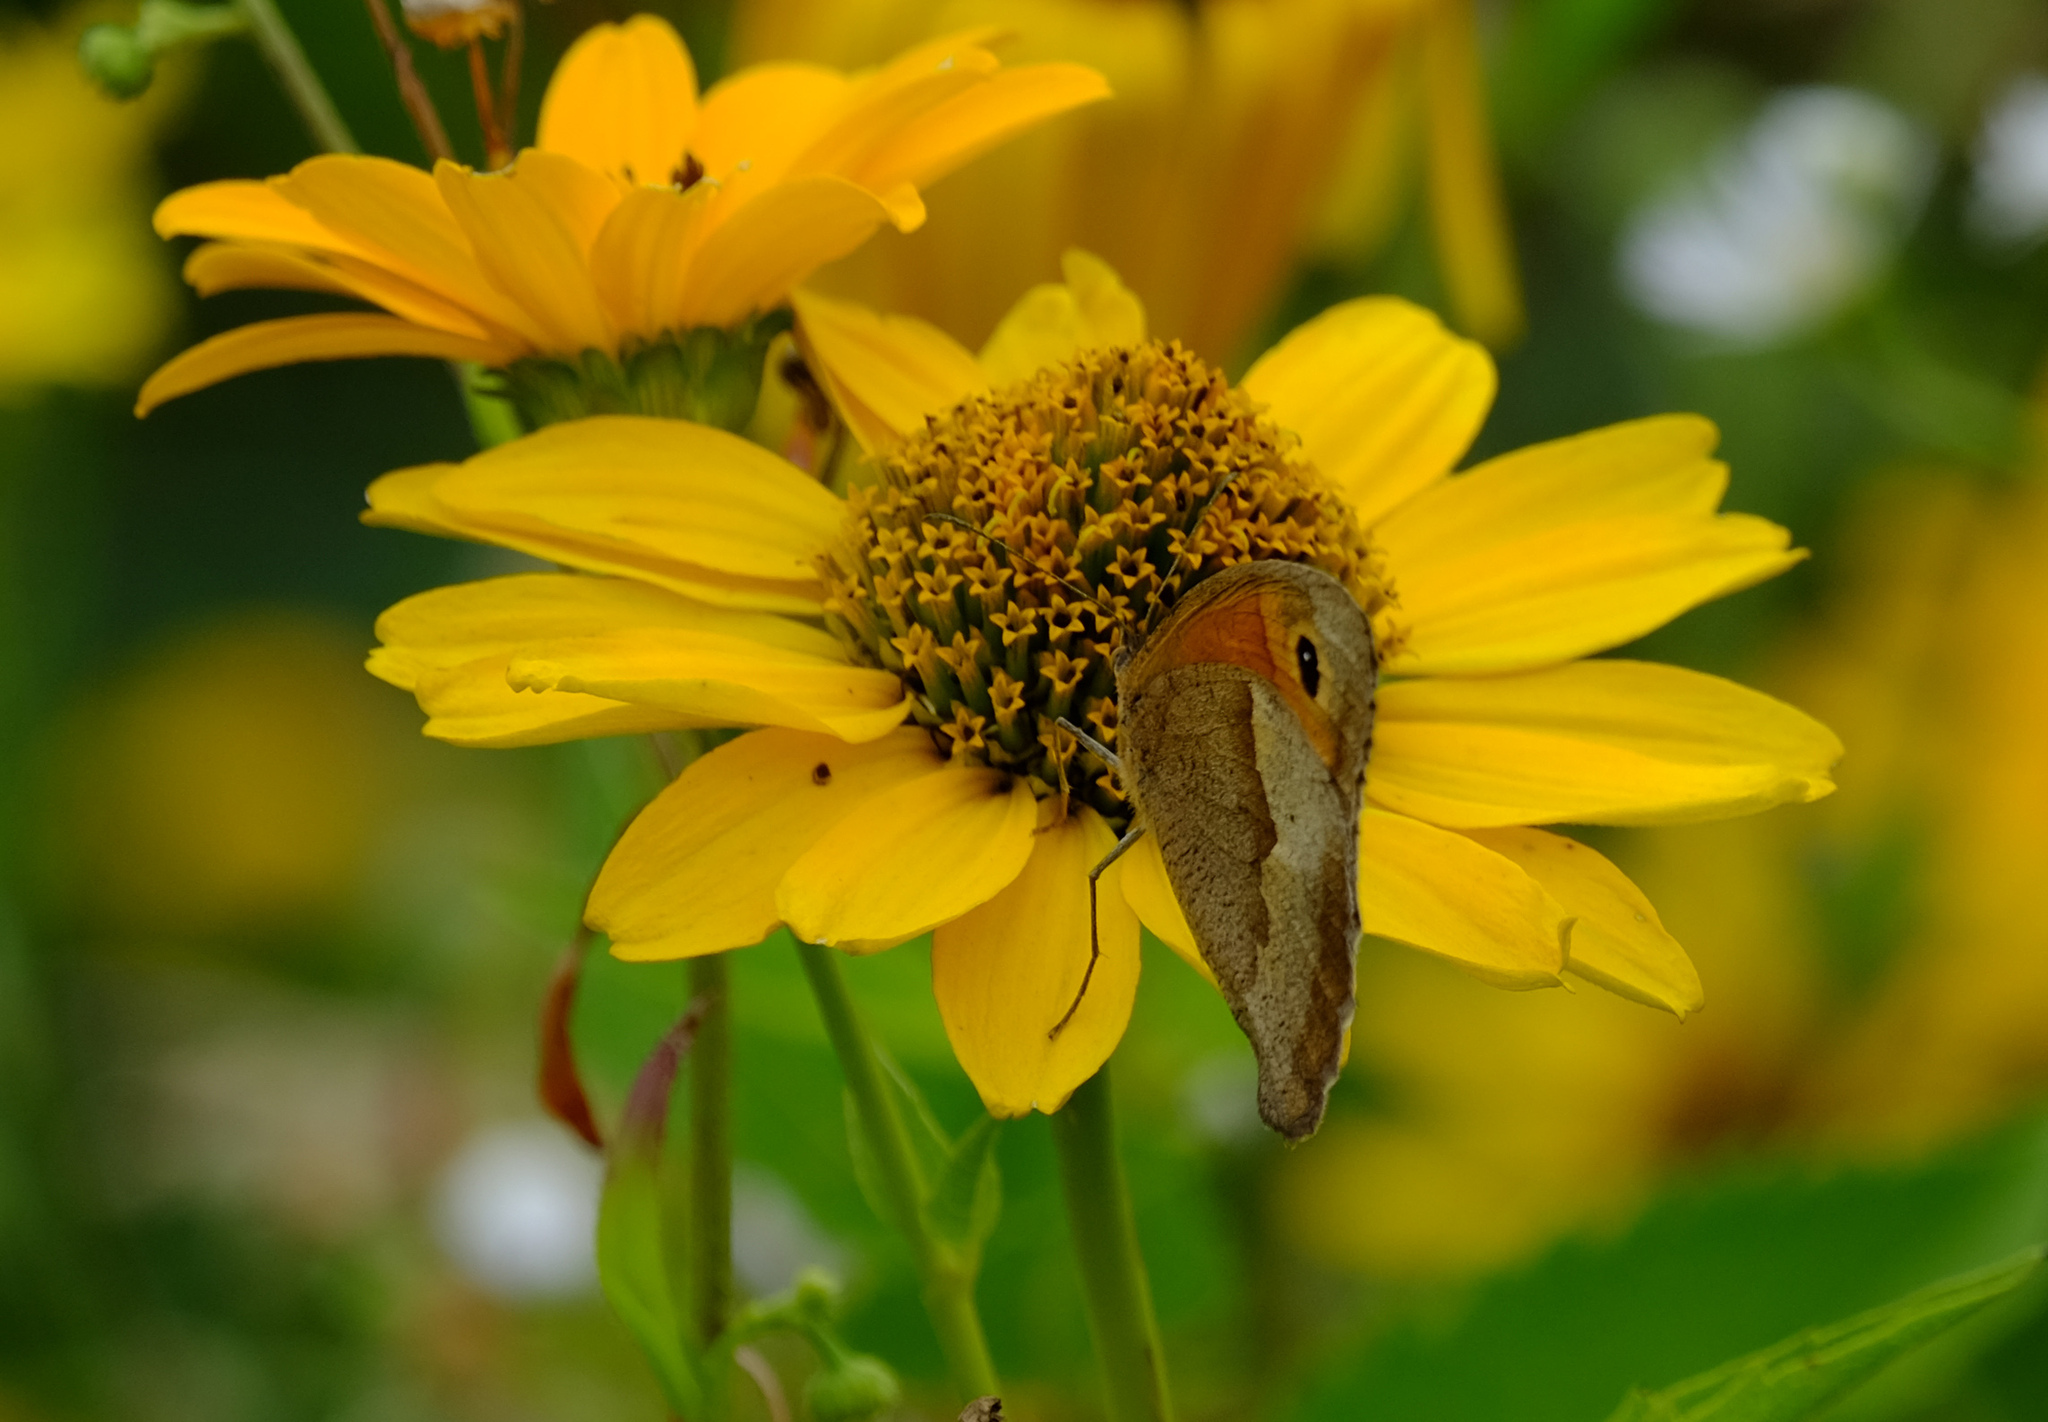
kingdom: Animalia
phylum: Arthropoda
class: Insecta
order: Lepidoptera
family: Nymphalidae
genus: Maniola
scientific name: Maniola jurtina
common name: Meadow brown
